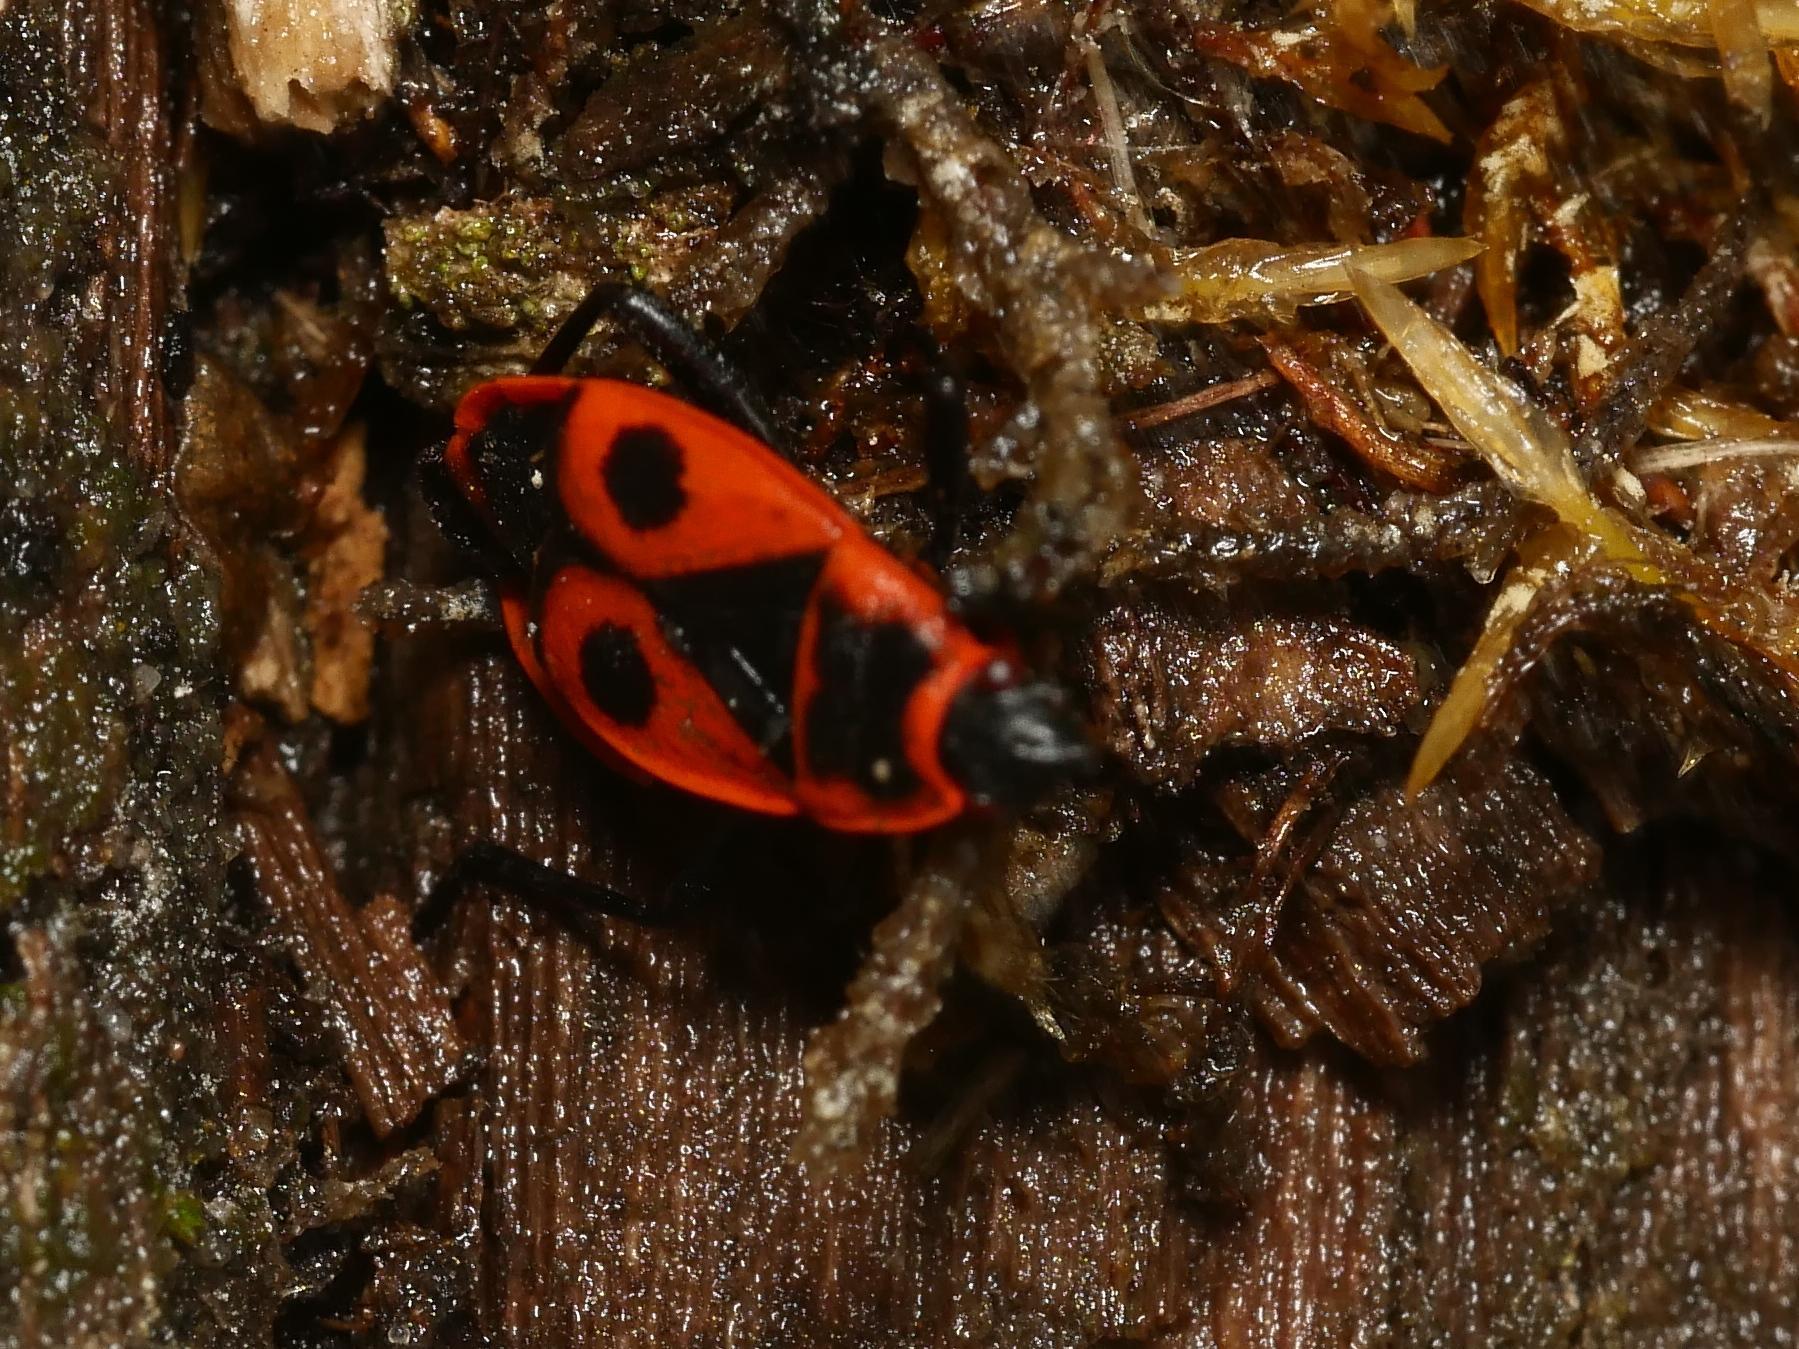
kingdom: Animalia
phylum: Arthropoda
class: Insecta
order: Hemiptera
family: Pyrrhocoridae
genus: Pyrrhocoris
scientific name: Pyrrhocoris apterus
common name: Firebug
